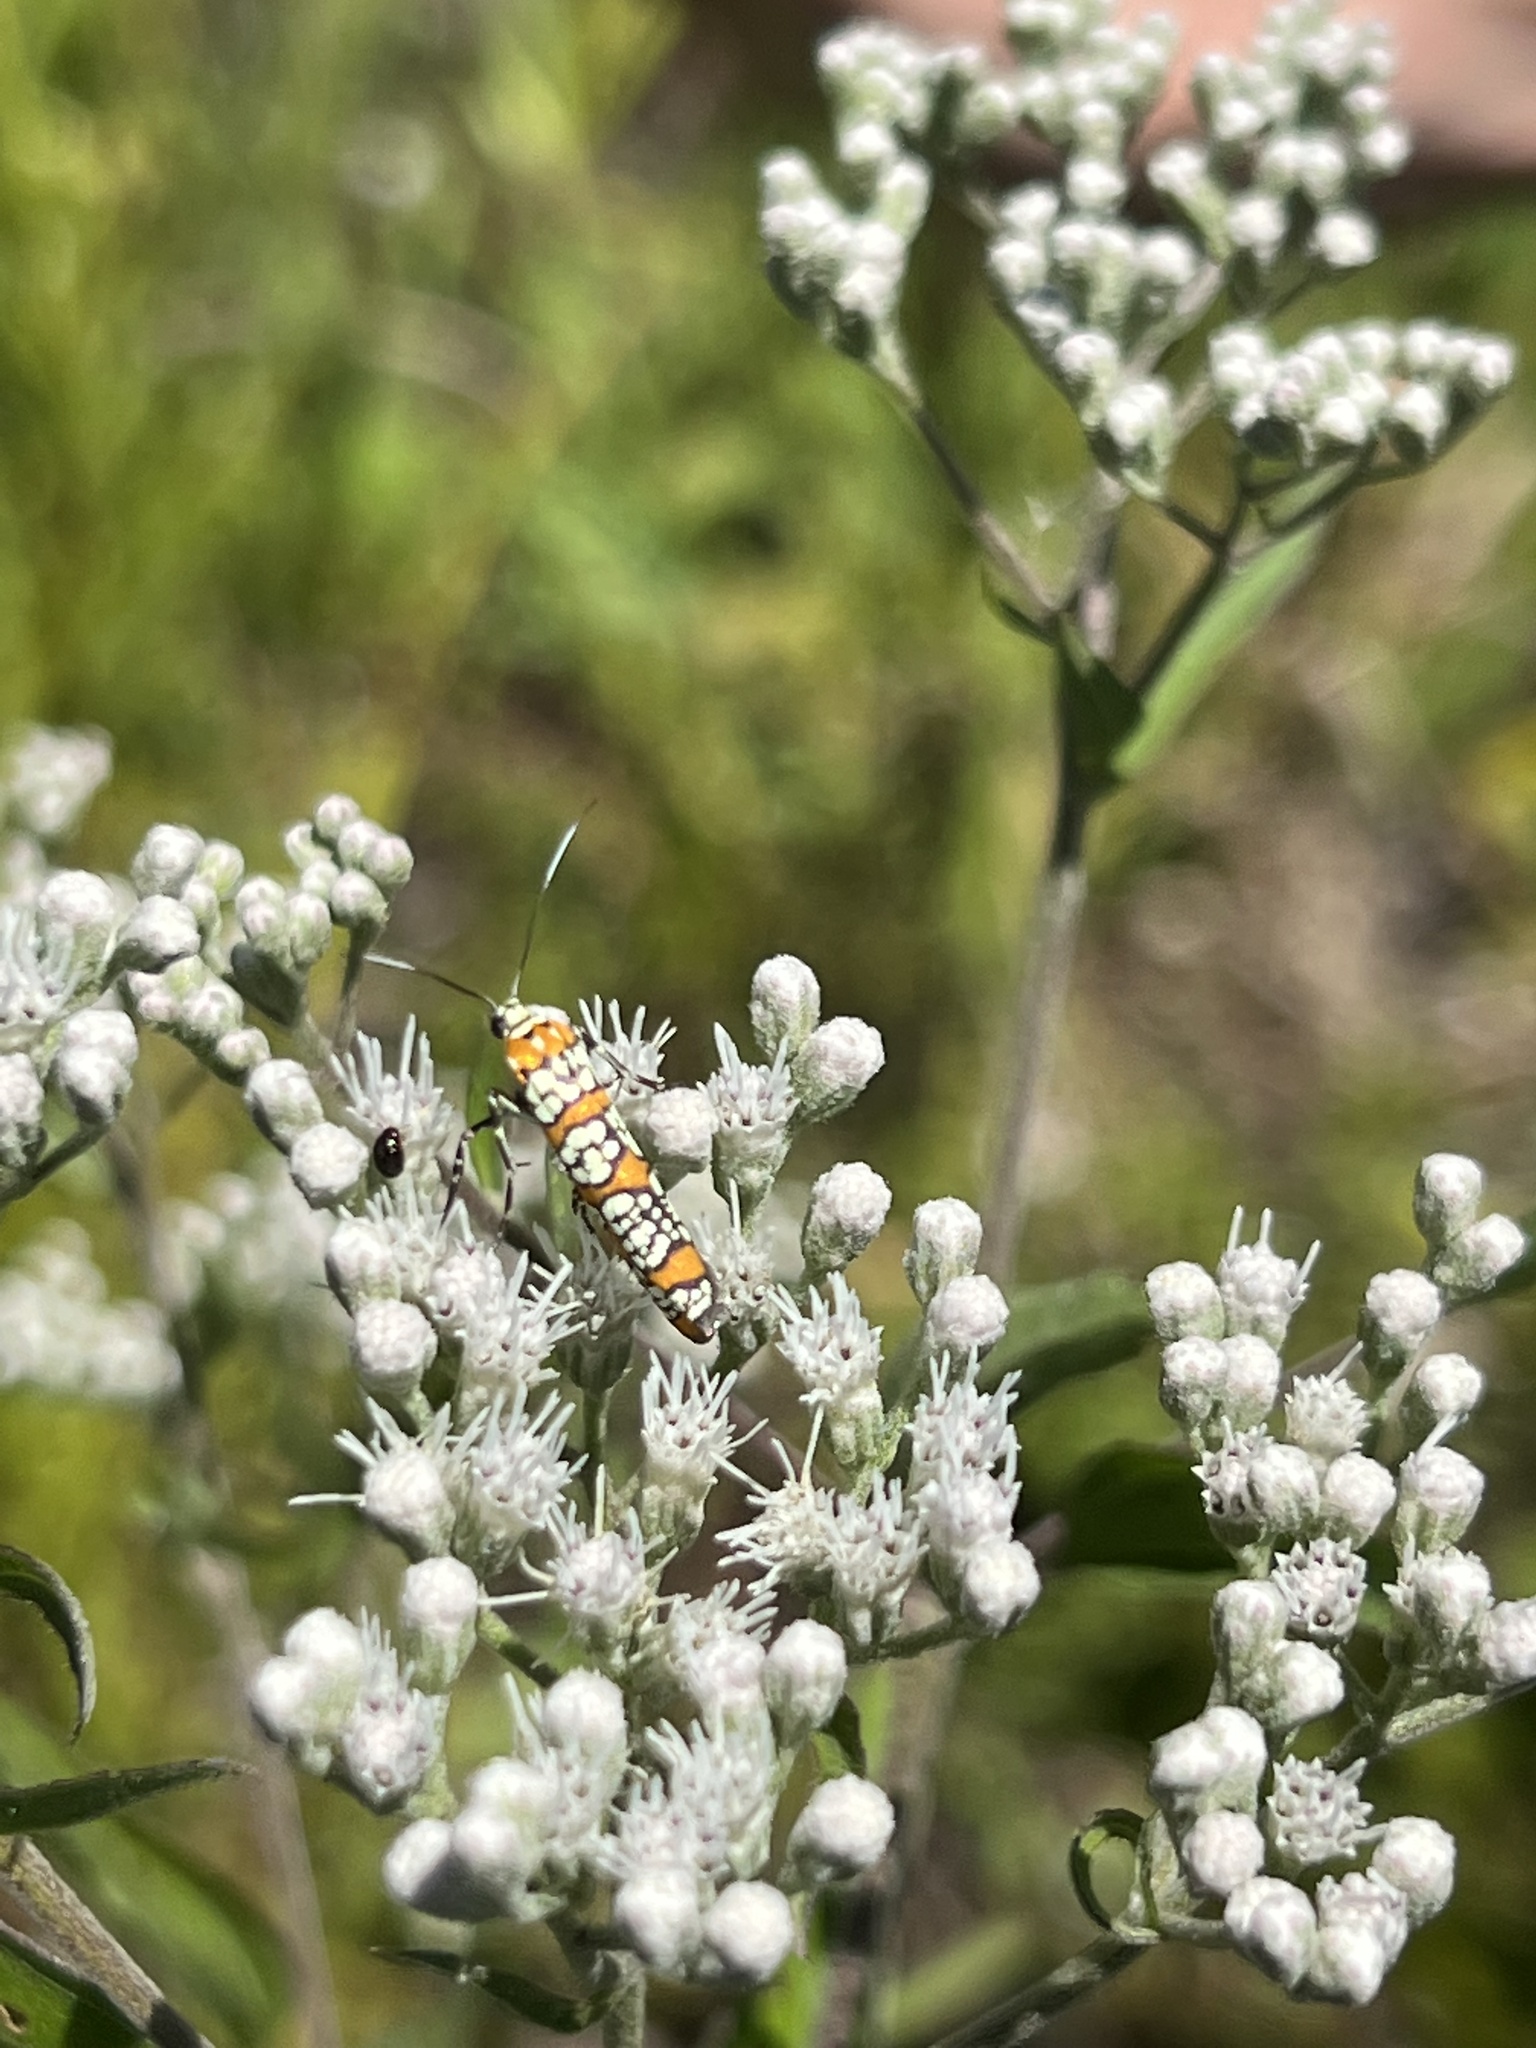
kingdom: Animalia
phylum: Arthropoda
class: Insecta
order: Lepidoptera
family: Attevidae
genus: Atteva
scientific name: Atteva punctella
